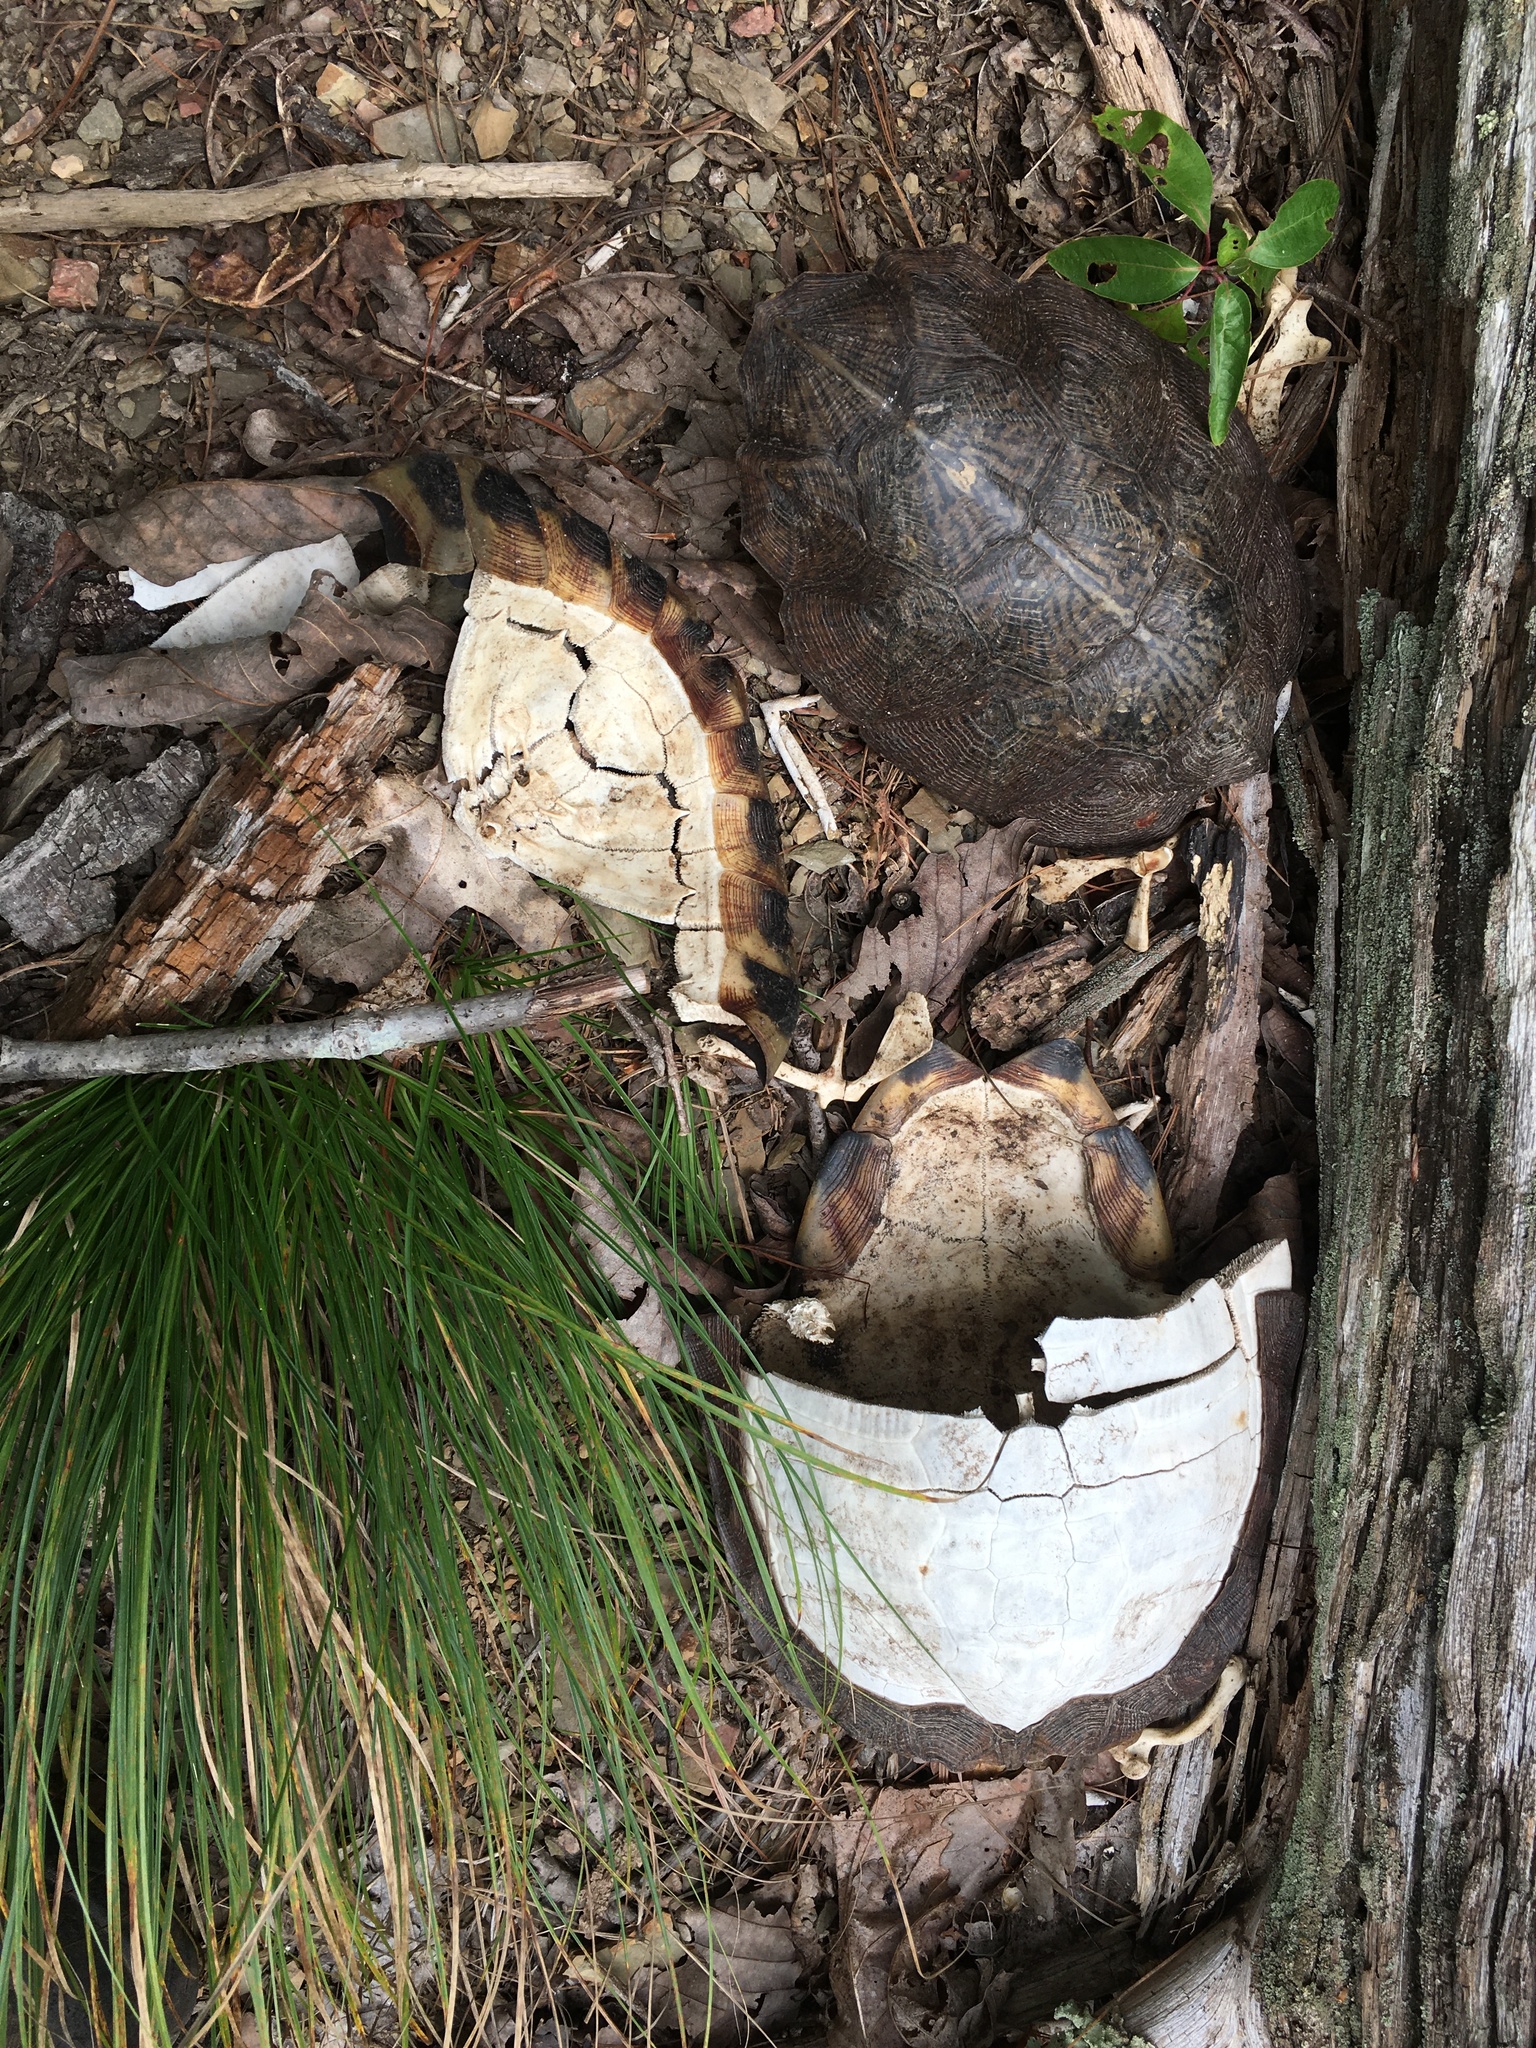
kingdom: Animalia
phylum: Chordata
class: Testudines
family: Emydidae
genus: Glyptemys
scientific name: Glyptemys insculpta
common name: Wood turtle
